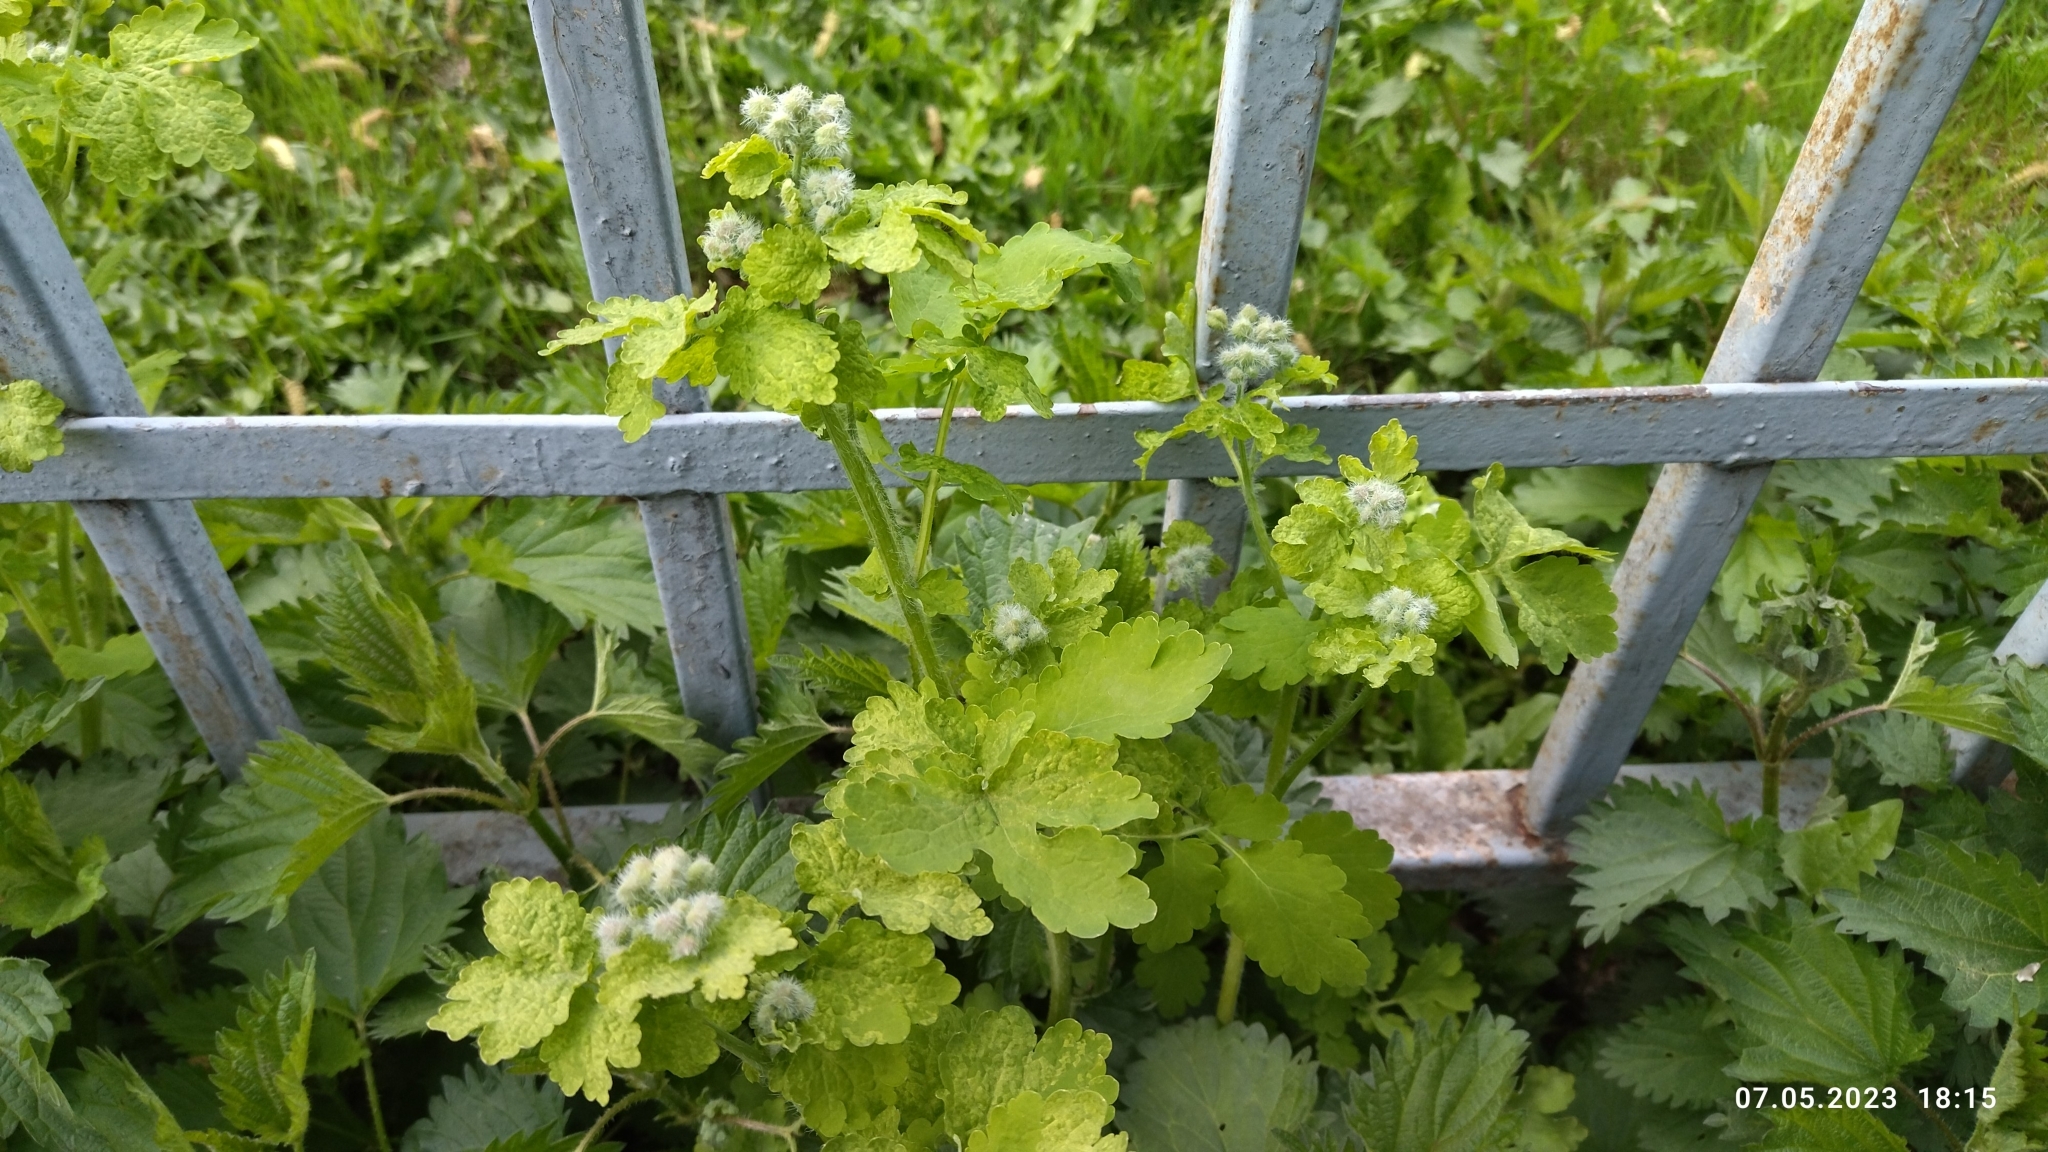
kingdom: Plantae
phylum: Tracheophyta
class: Magnoliopsida
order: Ranunculales
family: Papaveraceae
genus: Chelidonium
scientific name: Chelidonium majus
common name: Greater celandine
